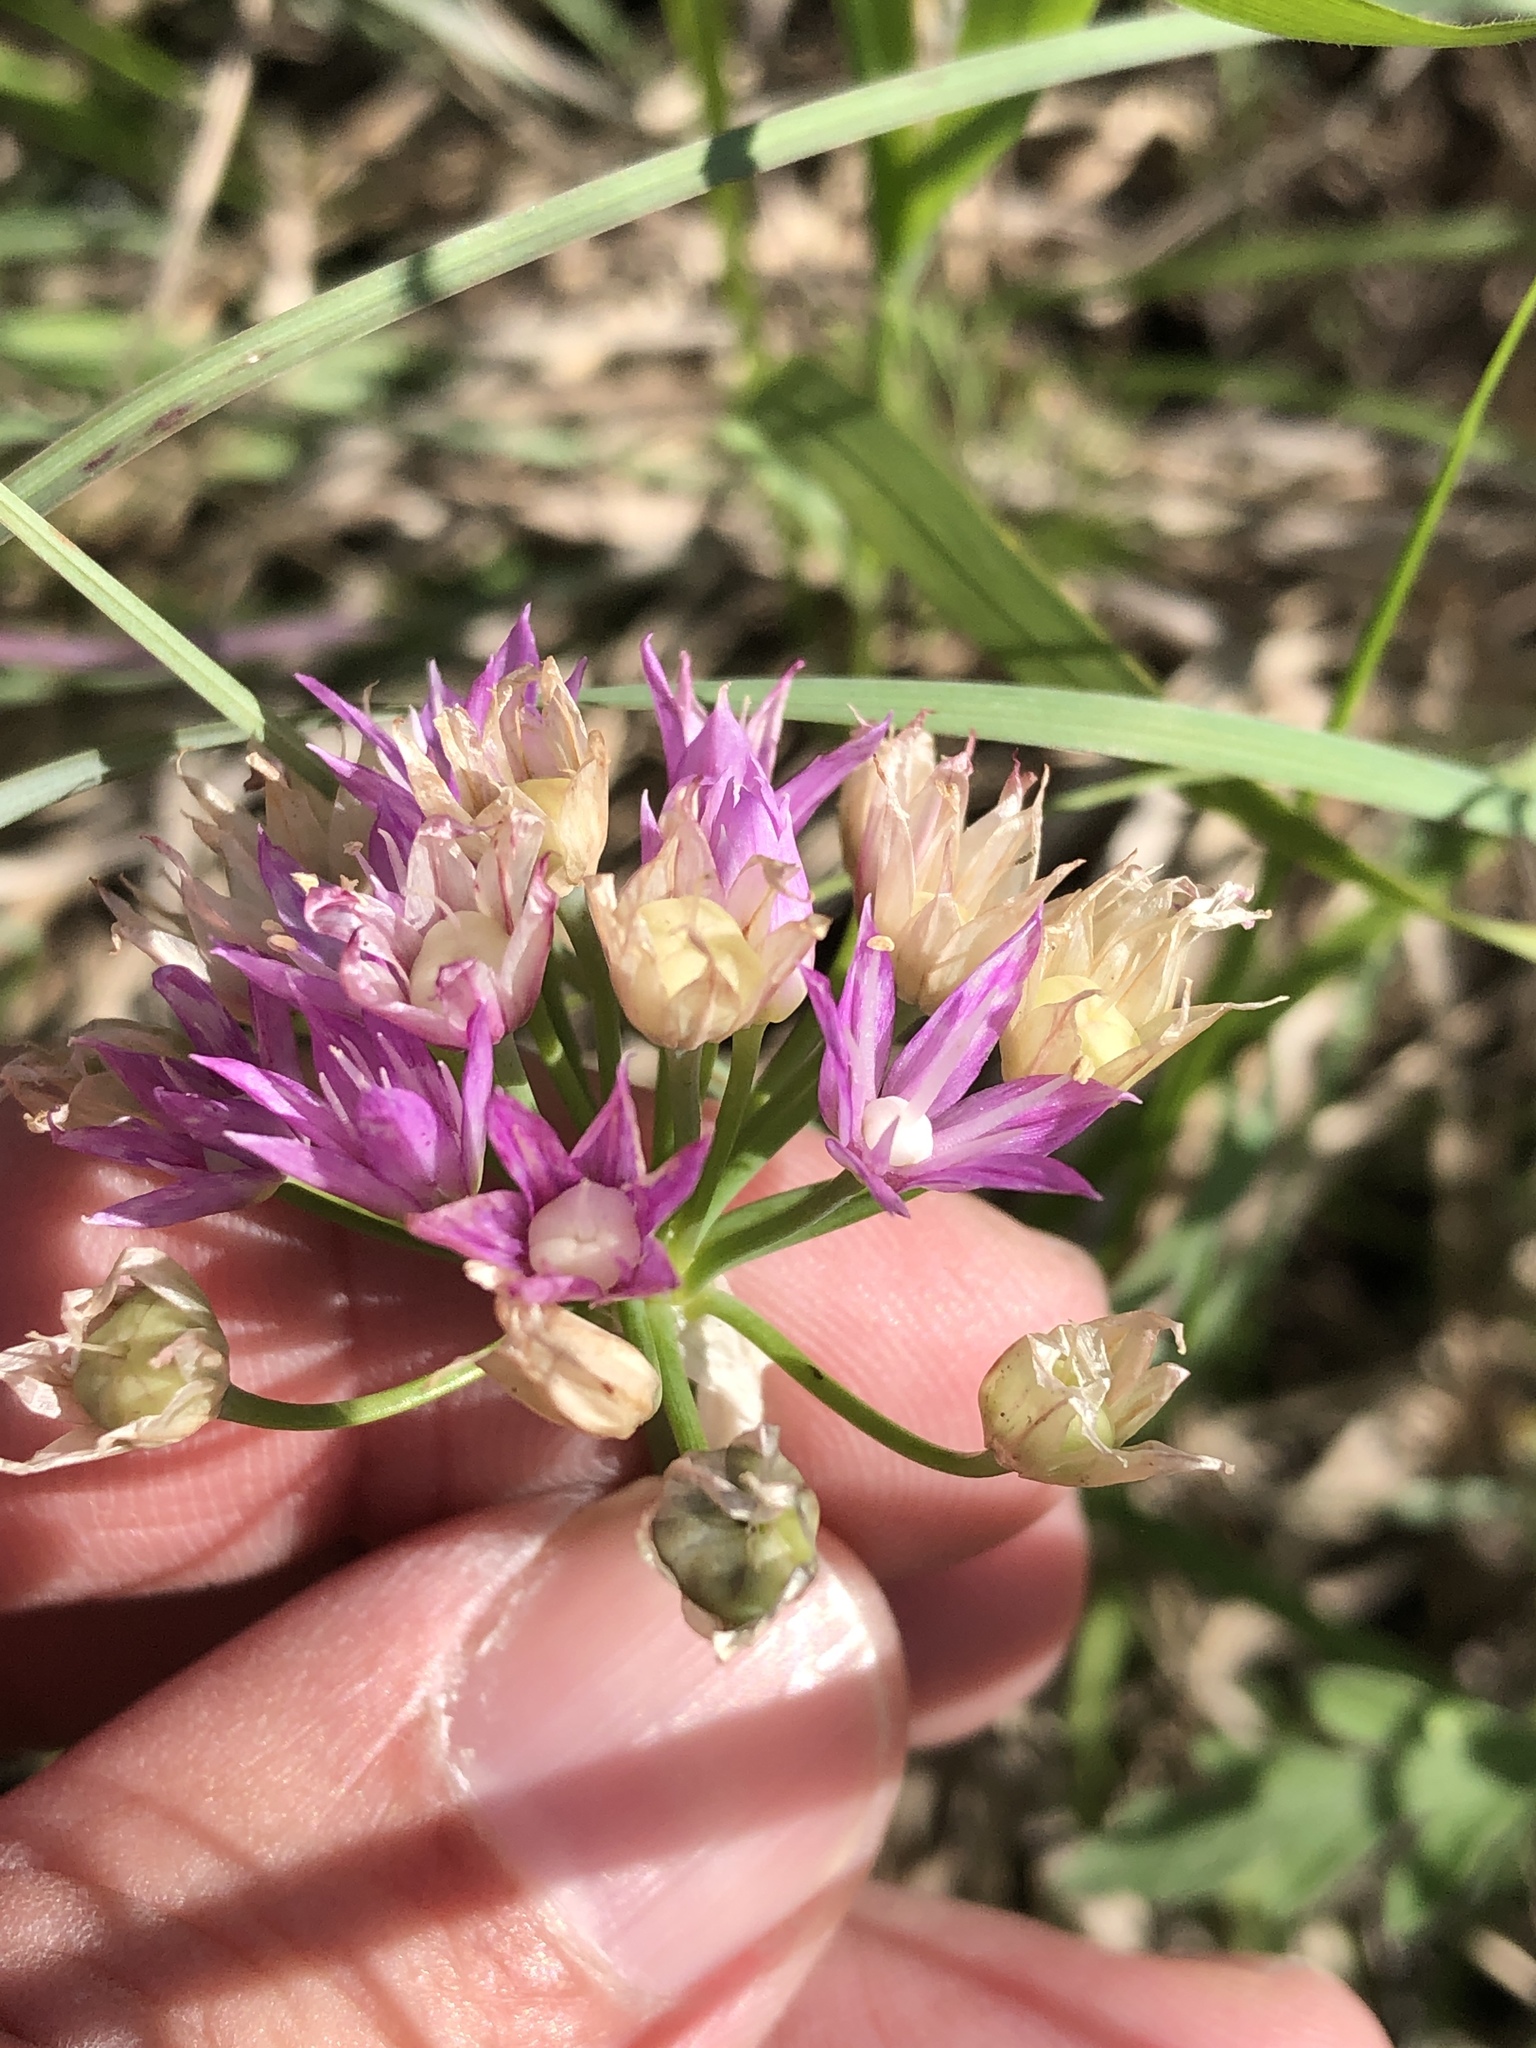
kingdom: Plantae
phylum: Tracheophyta
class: Liliopsida
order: Asparagales
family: Amaryllidaceae
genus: Allium
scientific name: Allium drummondii
